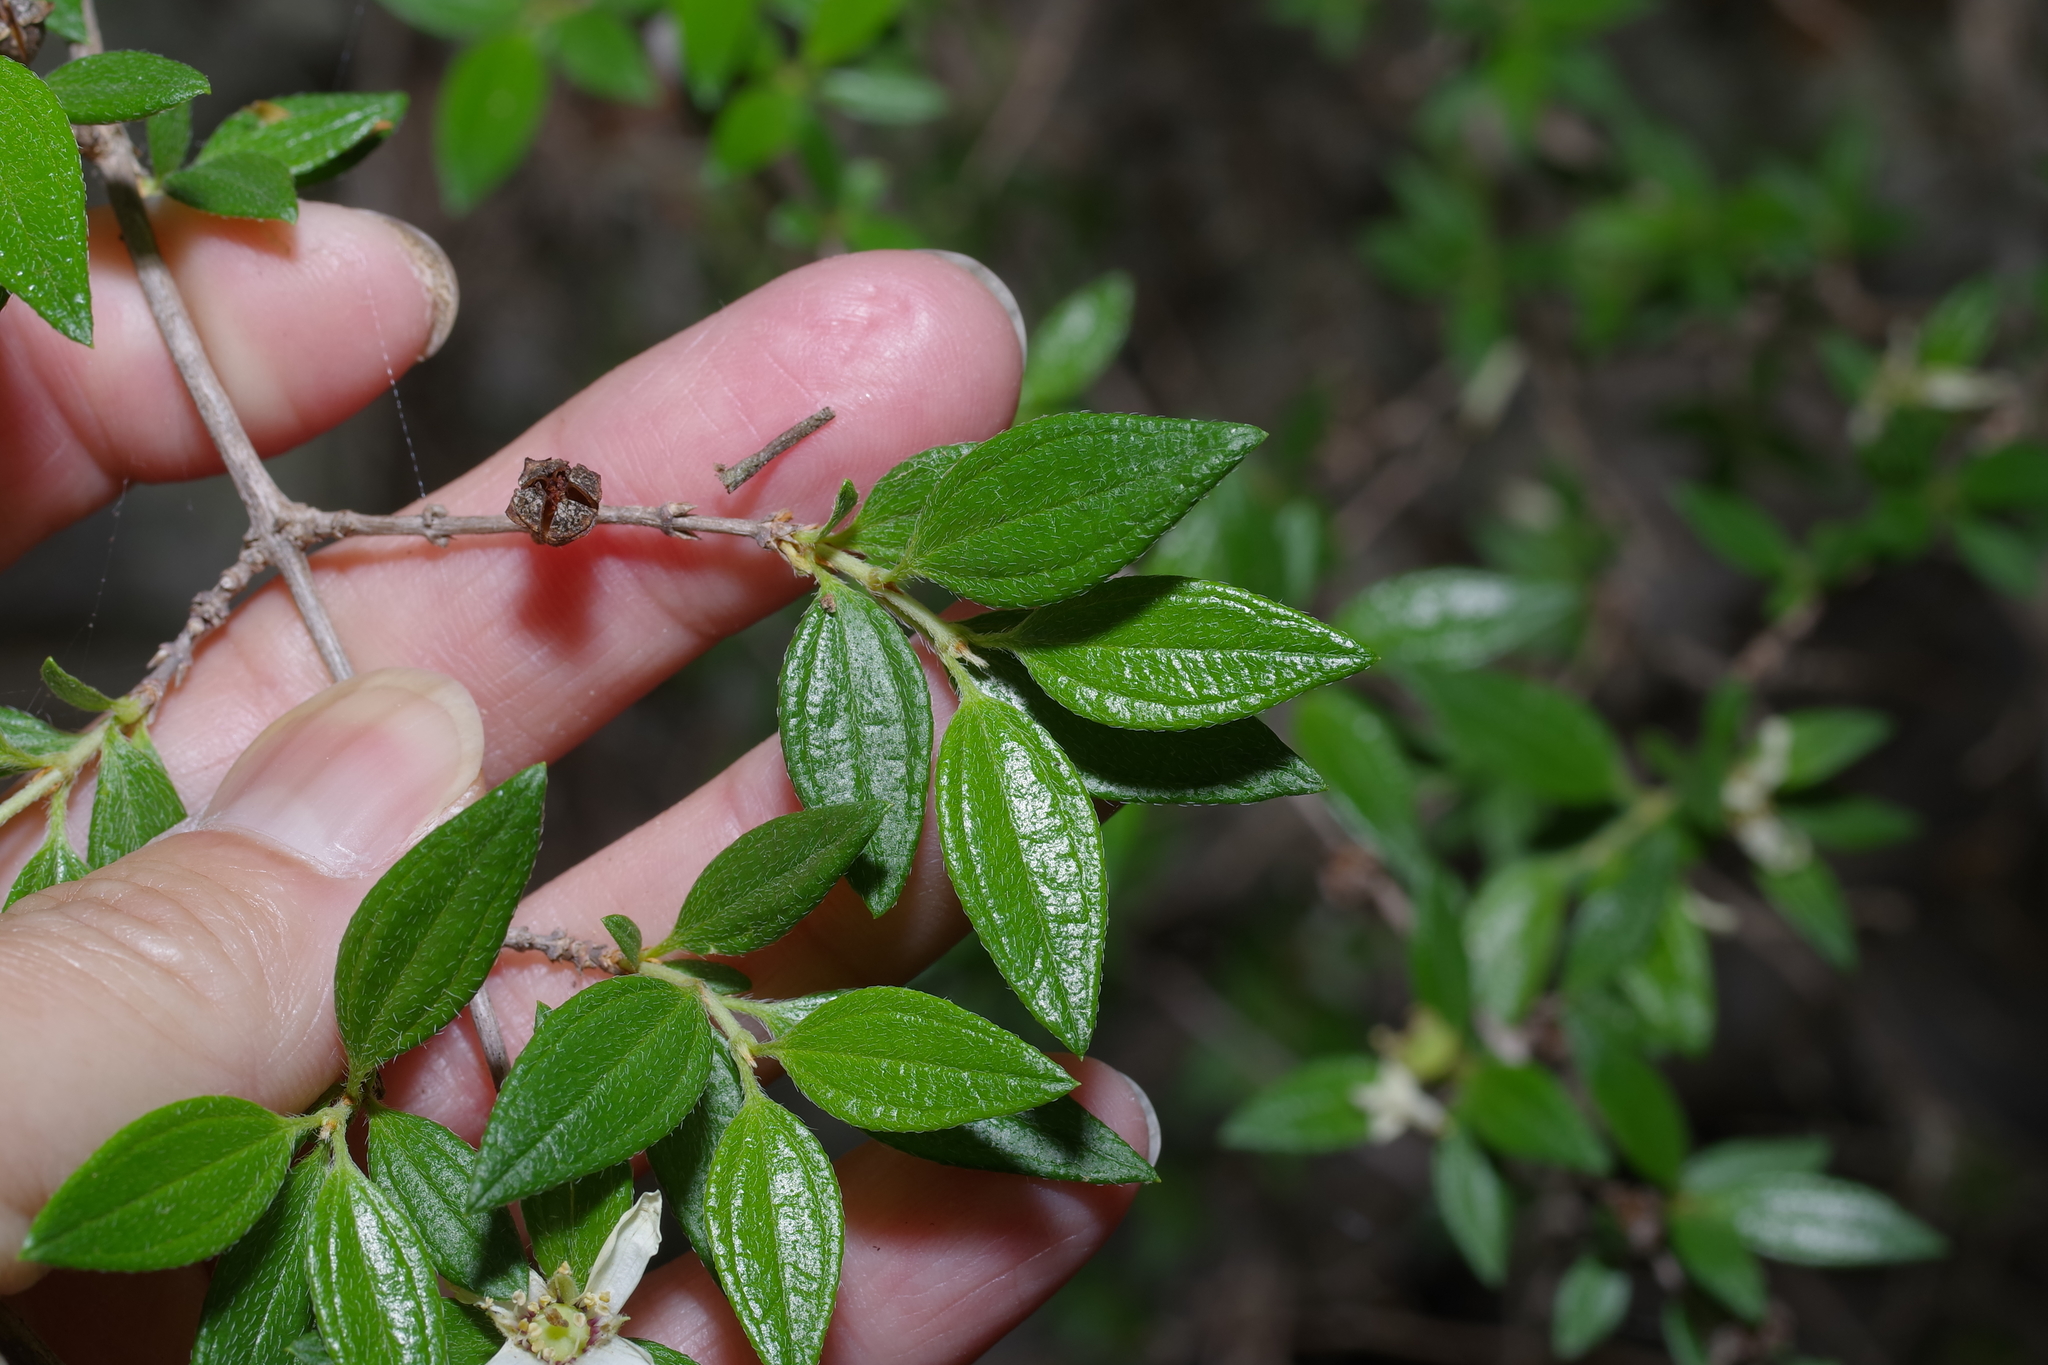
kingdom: Plantae
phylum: Tracheophyta
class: Magnoliopsida
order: Cornales
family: Hydrangeaceae
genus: Philadelphus
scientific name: Philadelphus texensis
